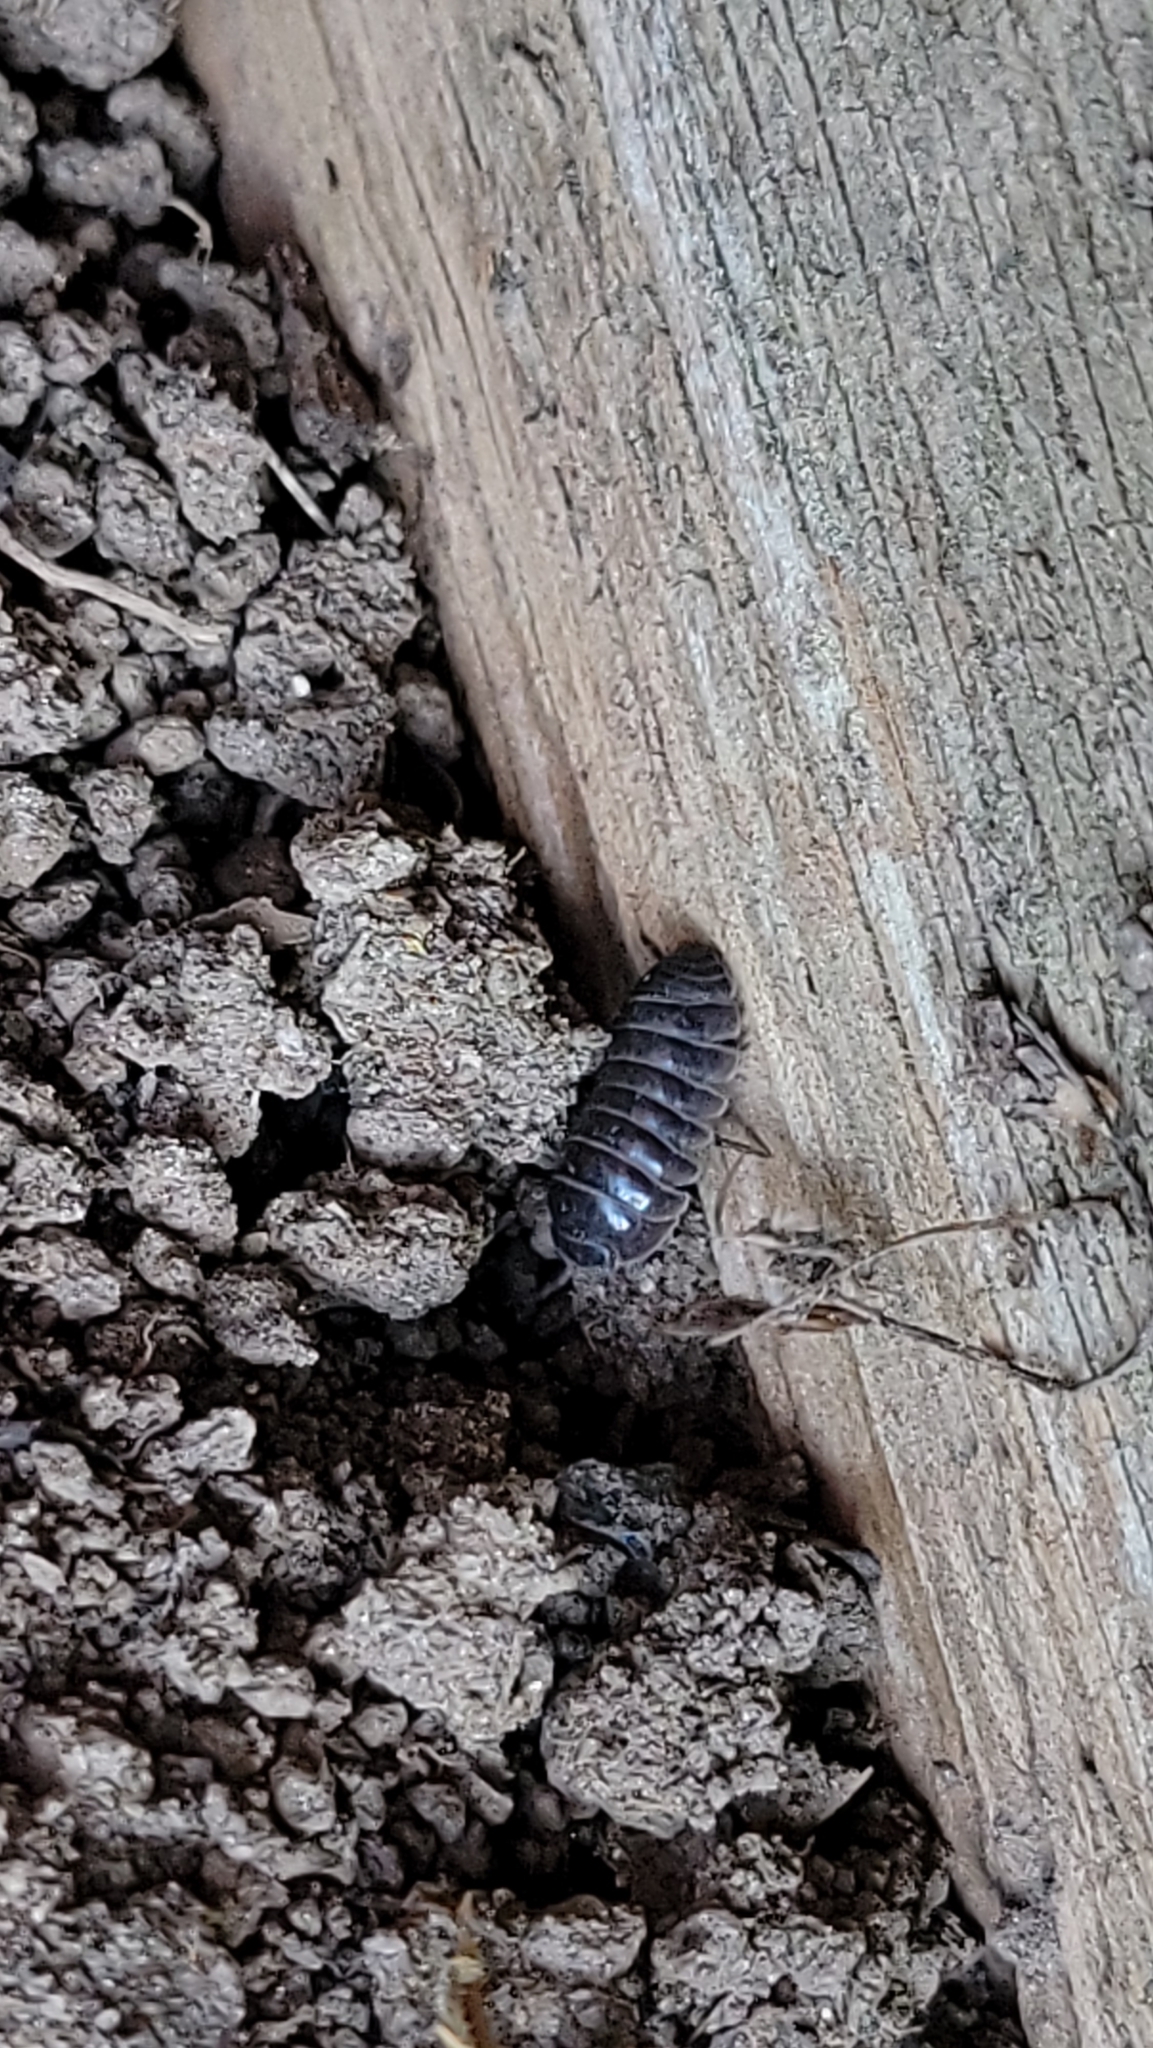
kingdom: Animalia
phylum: Arthropoda
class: Malacostraca
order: Isopoda
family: Armadillidiidae
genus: Armadillidium
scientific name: Armadillidium vulgare
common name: Common pill woodlouse
